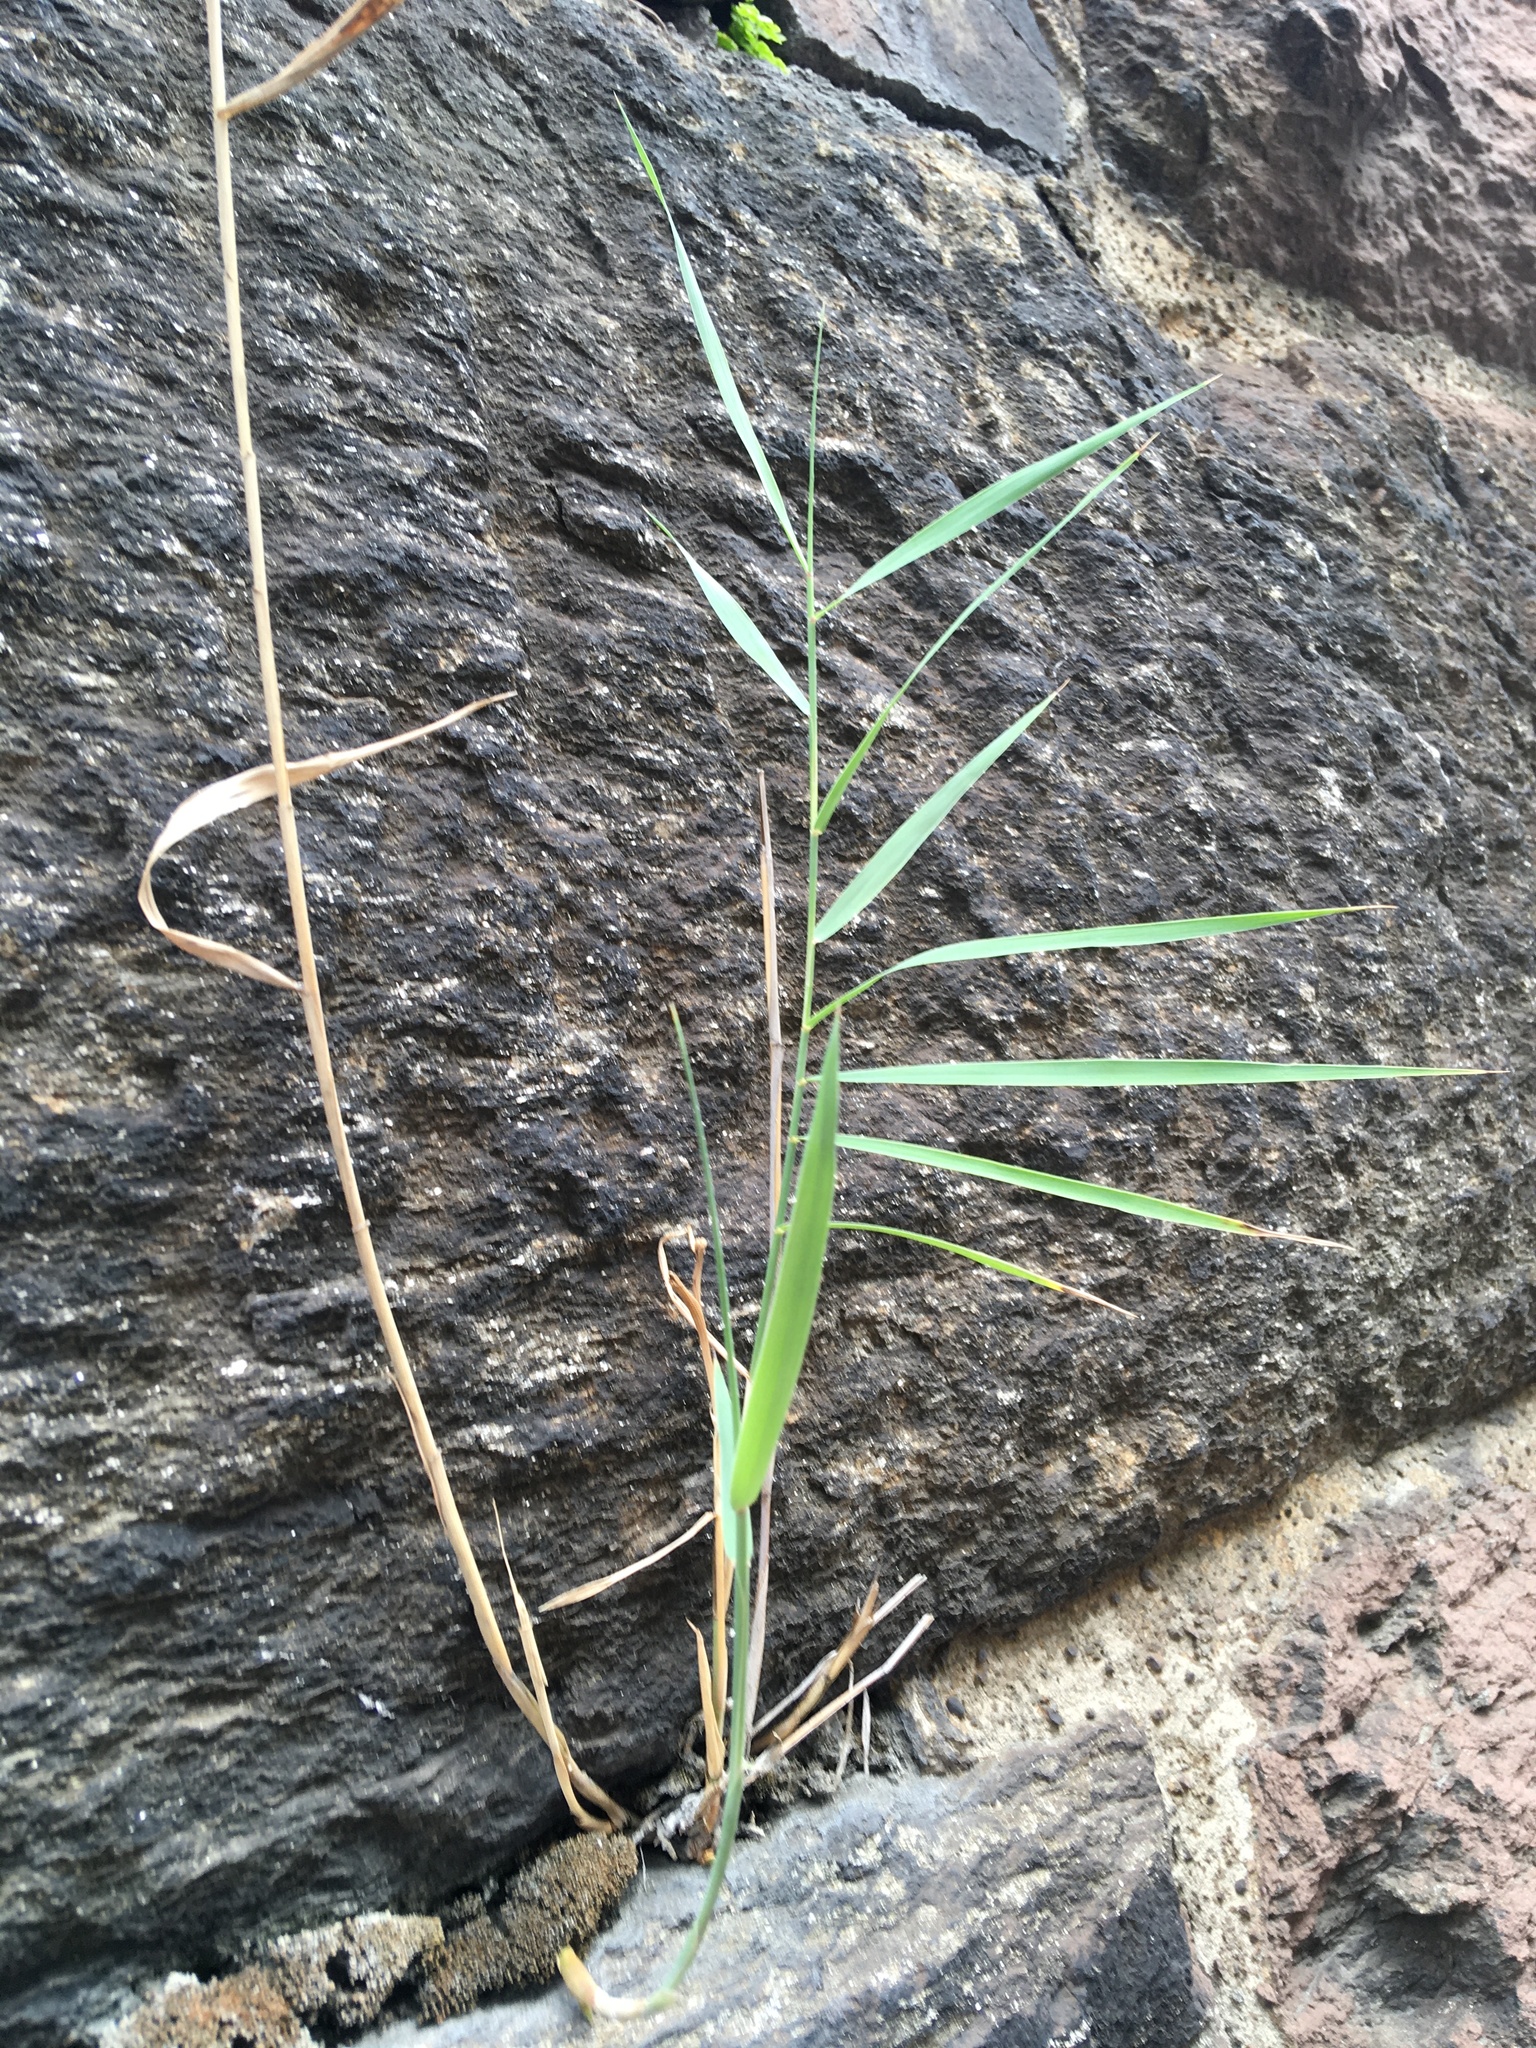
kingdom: Plantae
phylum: Tracheophyta
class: Liliopsida
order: Poales
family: Poaceae
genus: Phragmites
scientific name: Phragmites australis
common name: Common reed
